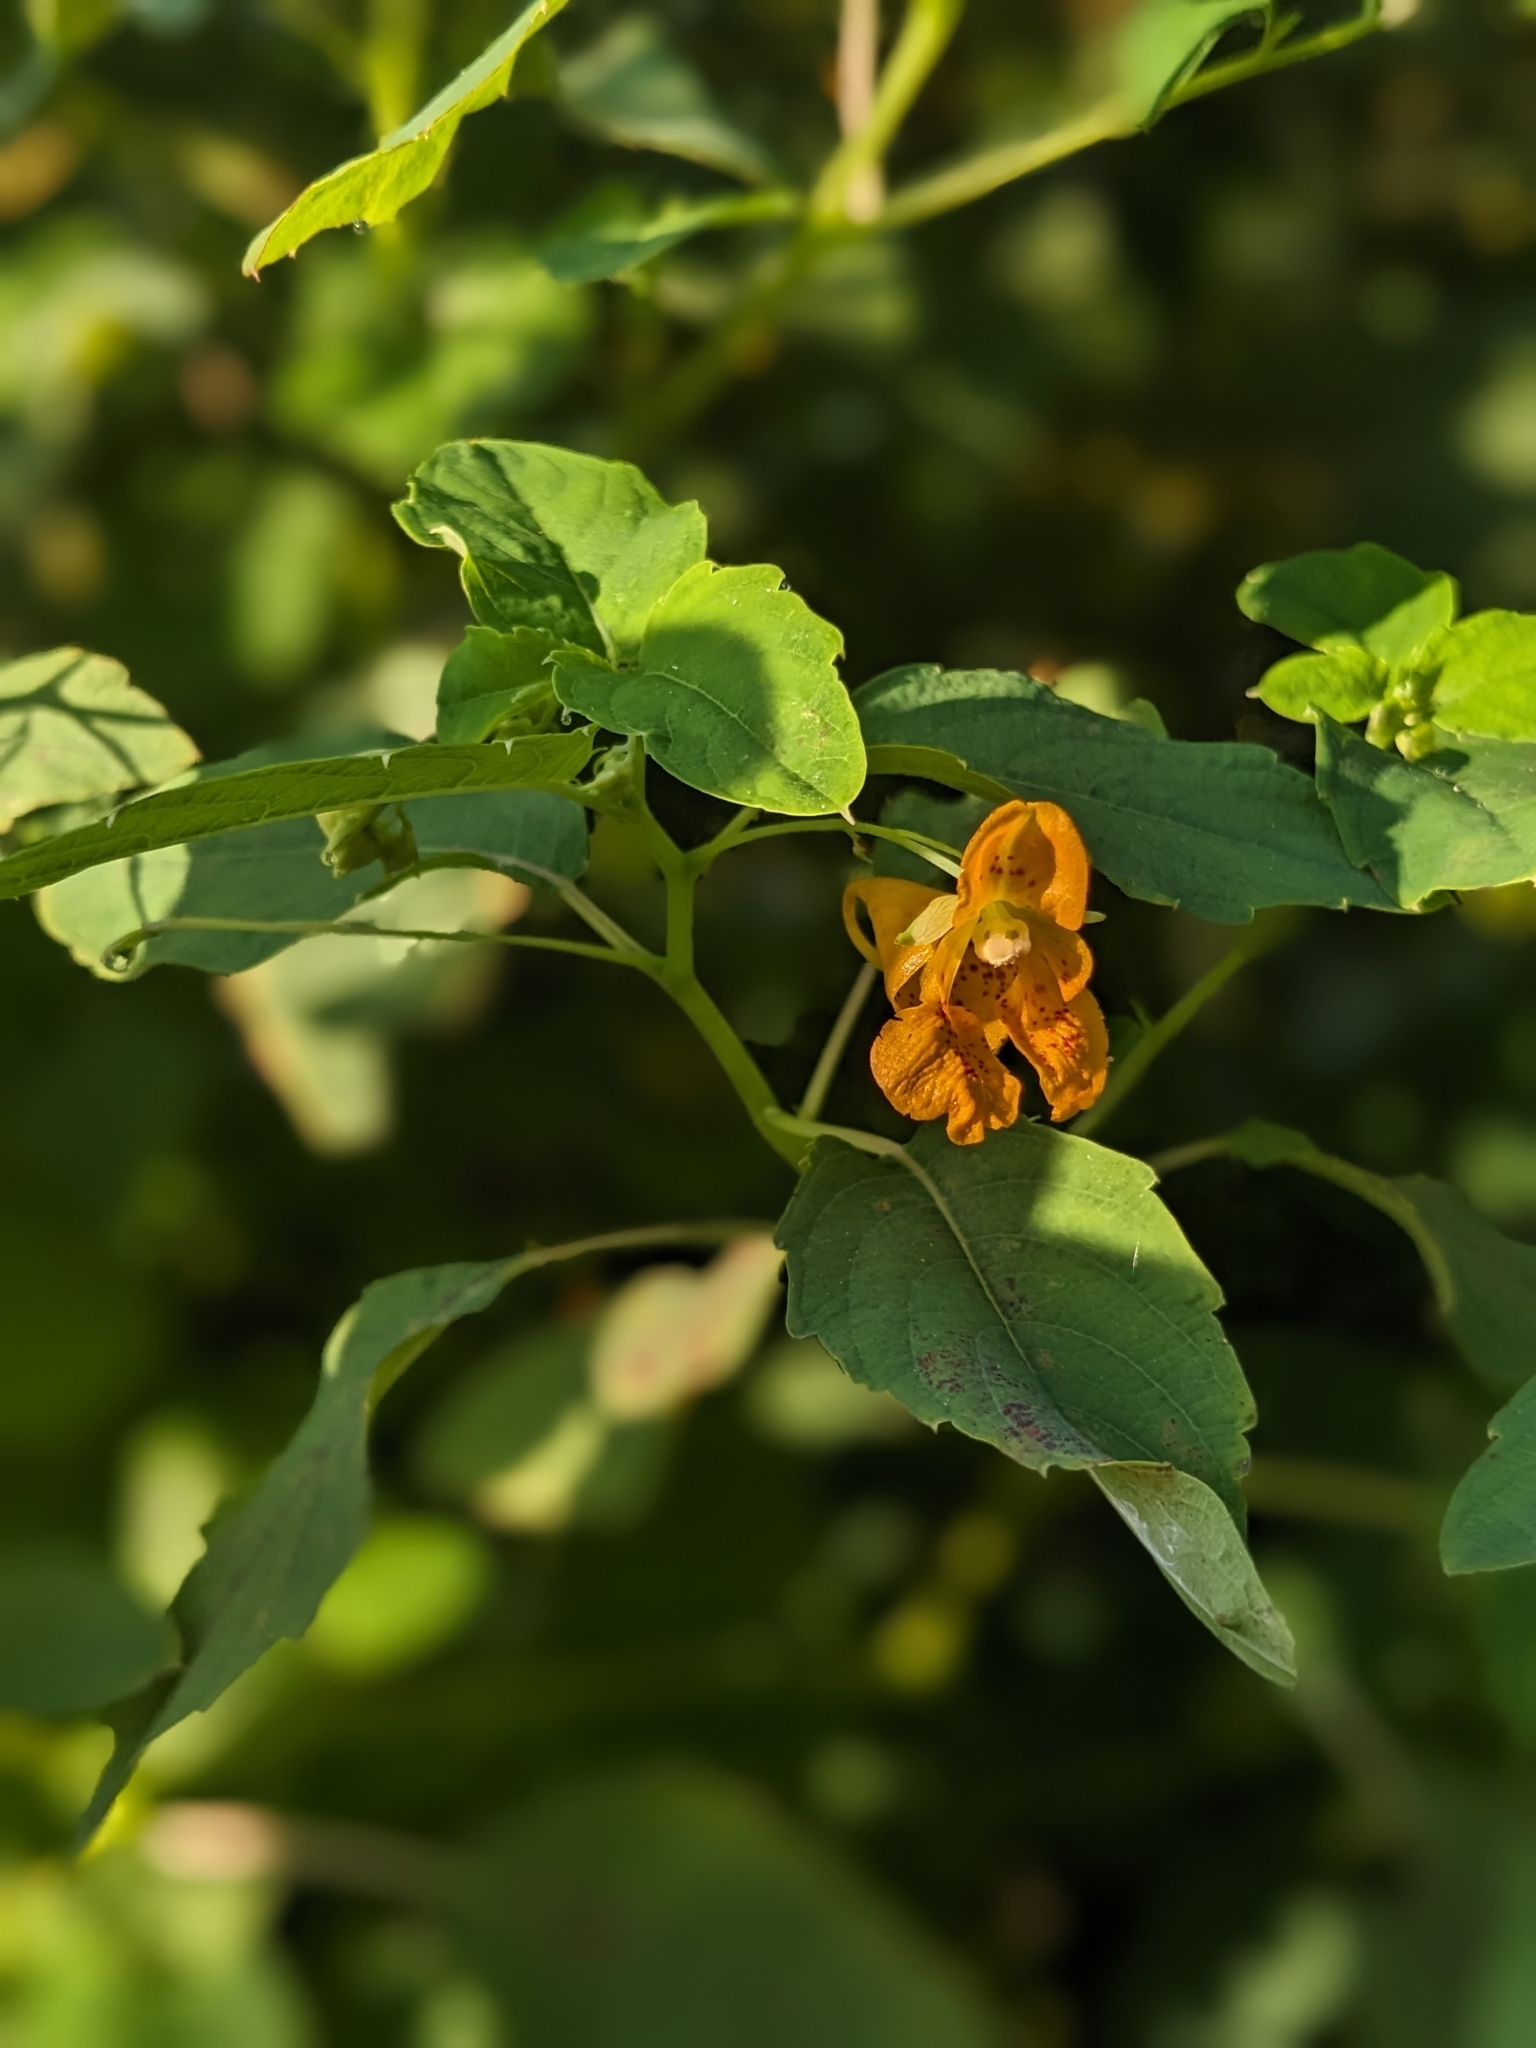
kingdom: Plantae
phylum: Tracheophyta
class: Magnoliopsida
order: Ericales
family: Balsaminaceae
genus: Impatiens
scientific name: Impatiens capensis
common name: Orange balsam
